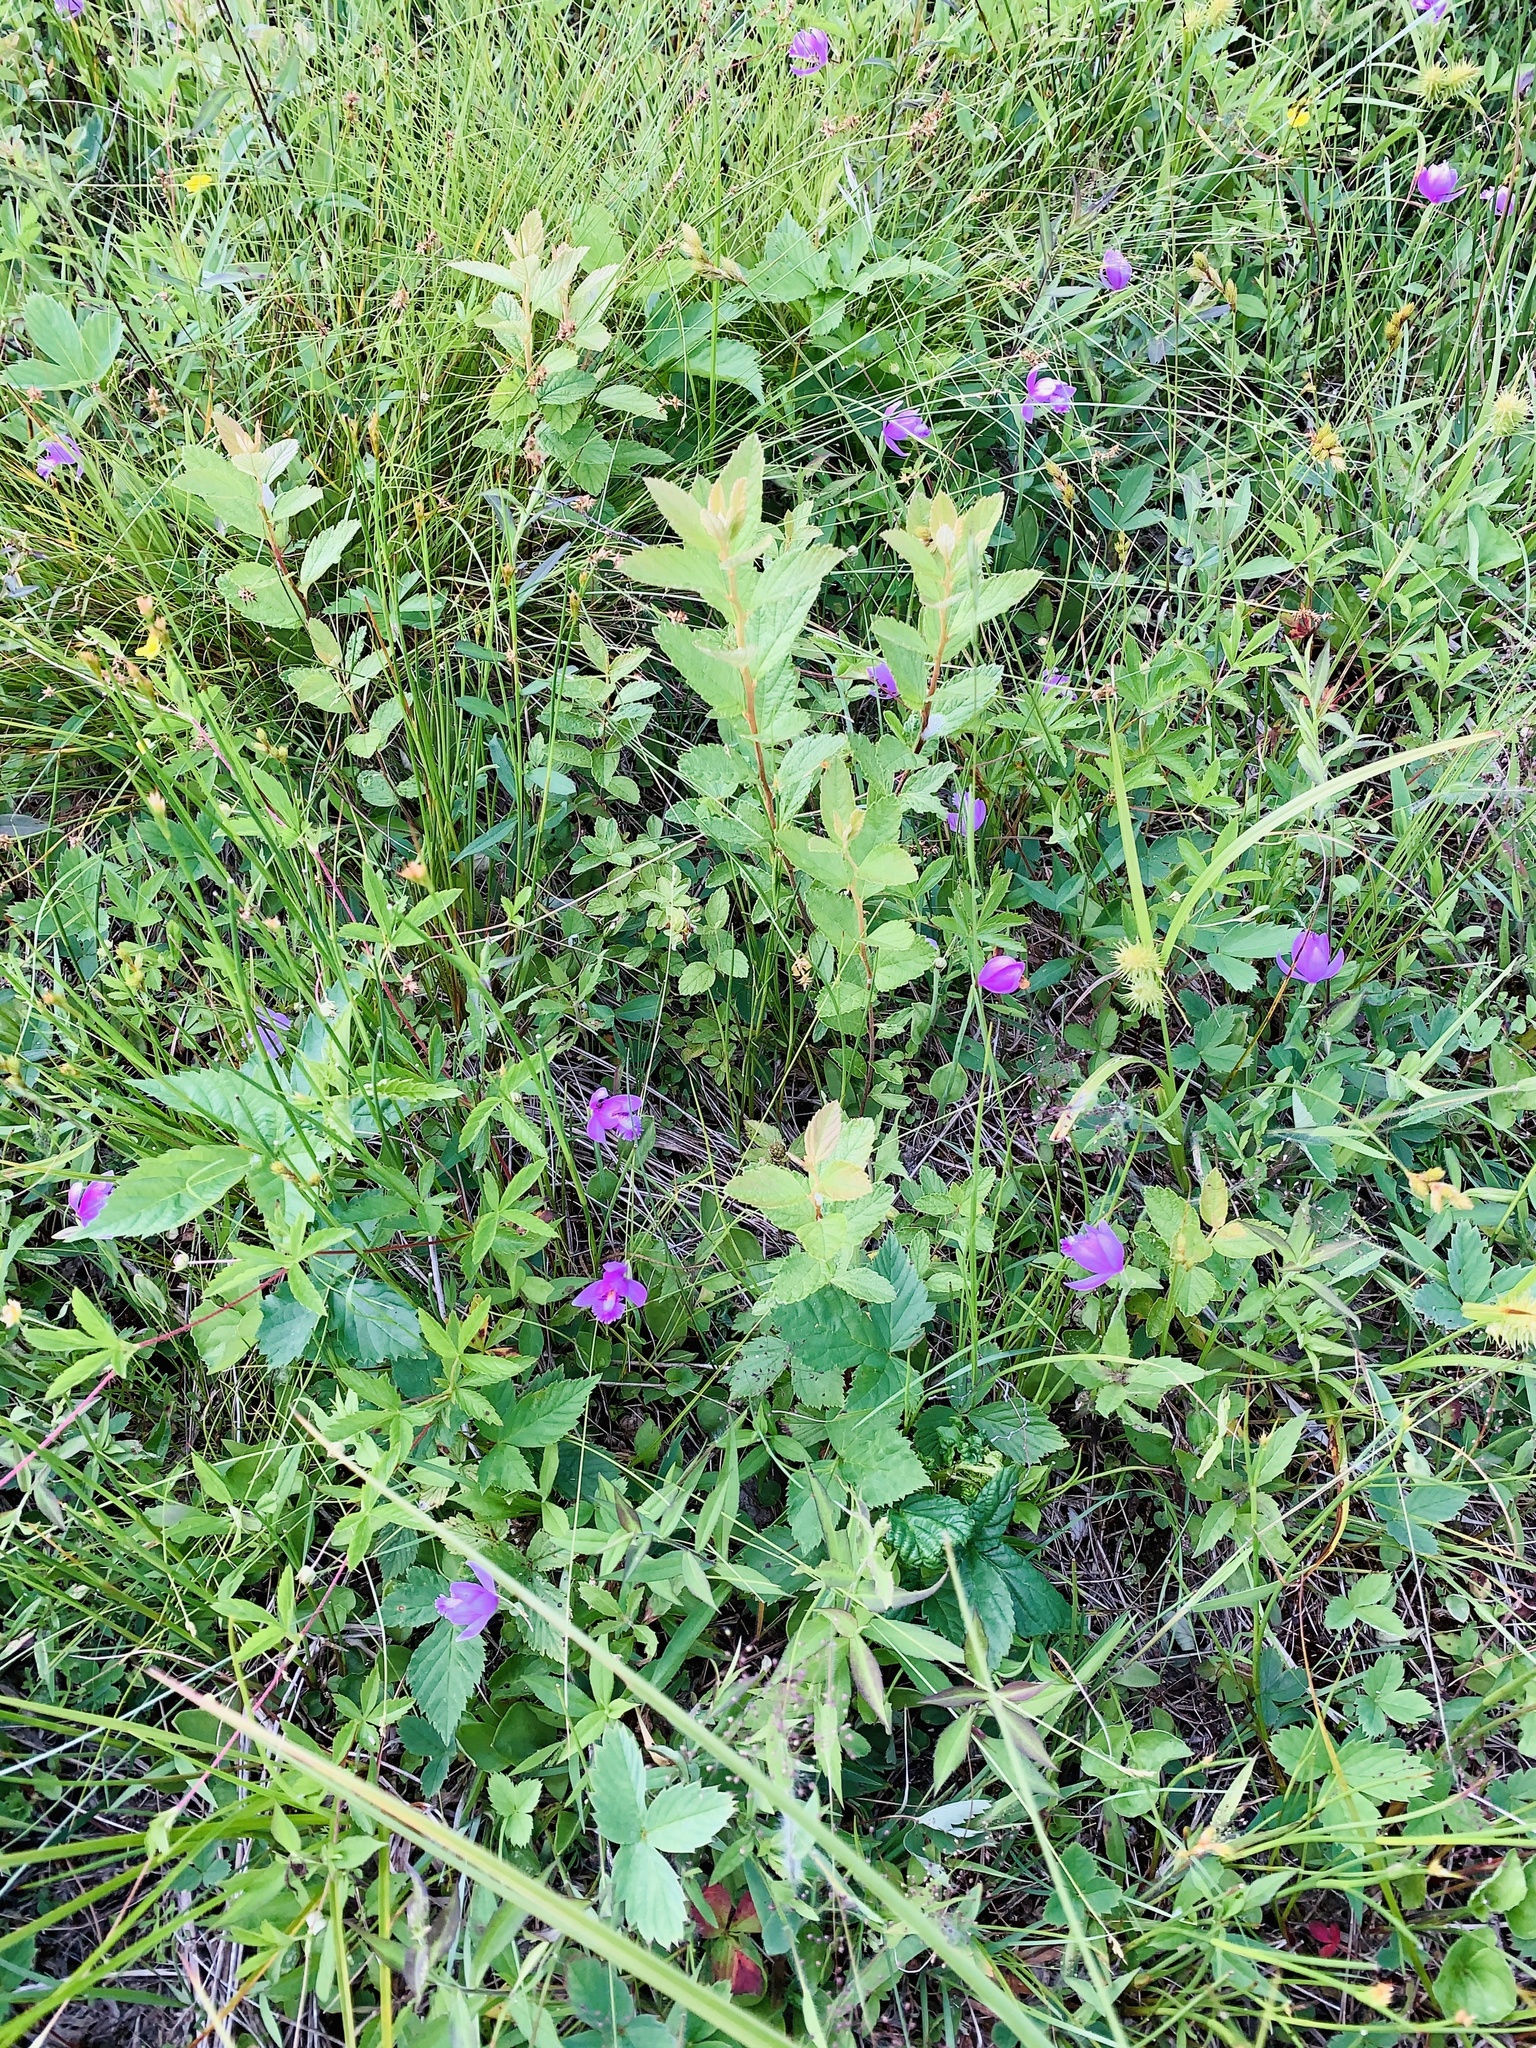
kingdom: Plantae
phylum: Tracheophyta
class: Liliopsida
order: Asparagales
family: Orchidaceae
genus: Pogonia
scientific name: Pogonia ophioglossoides
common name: Rose pogonia
